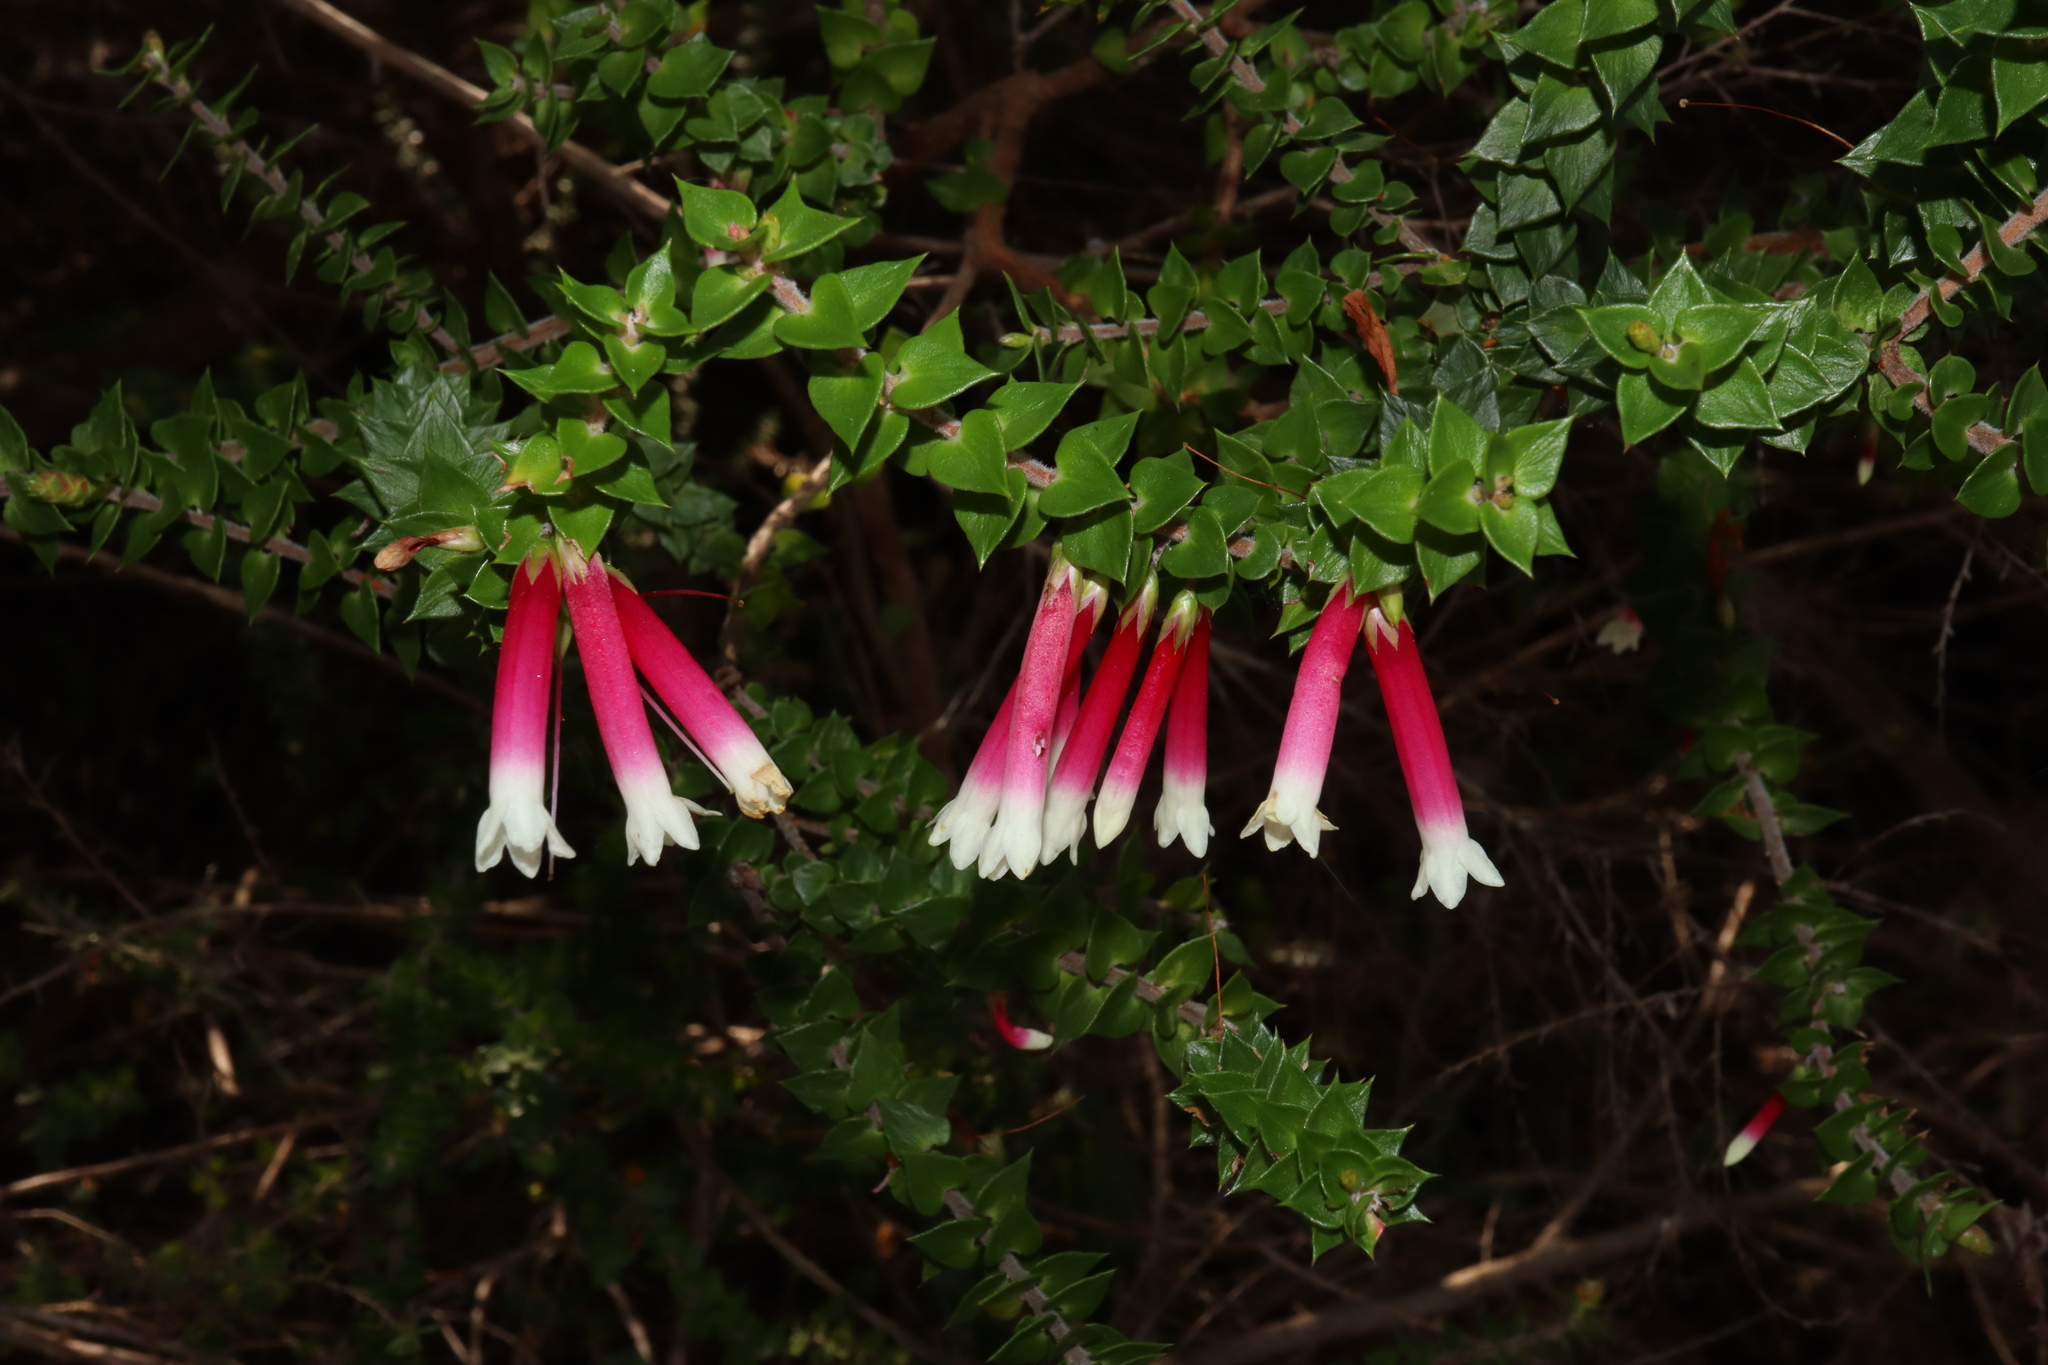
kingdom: Plantae
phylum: Tracheophyta
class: Magnoliopsida
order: Ericales
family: Ericaceae
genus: Epacris
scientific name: Epacris longiflora
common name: Fuchsia-heath
